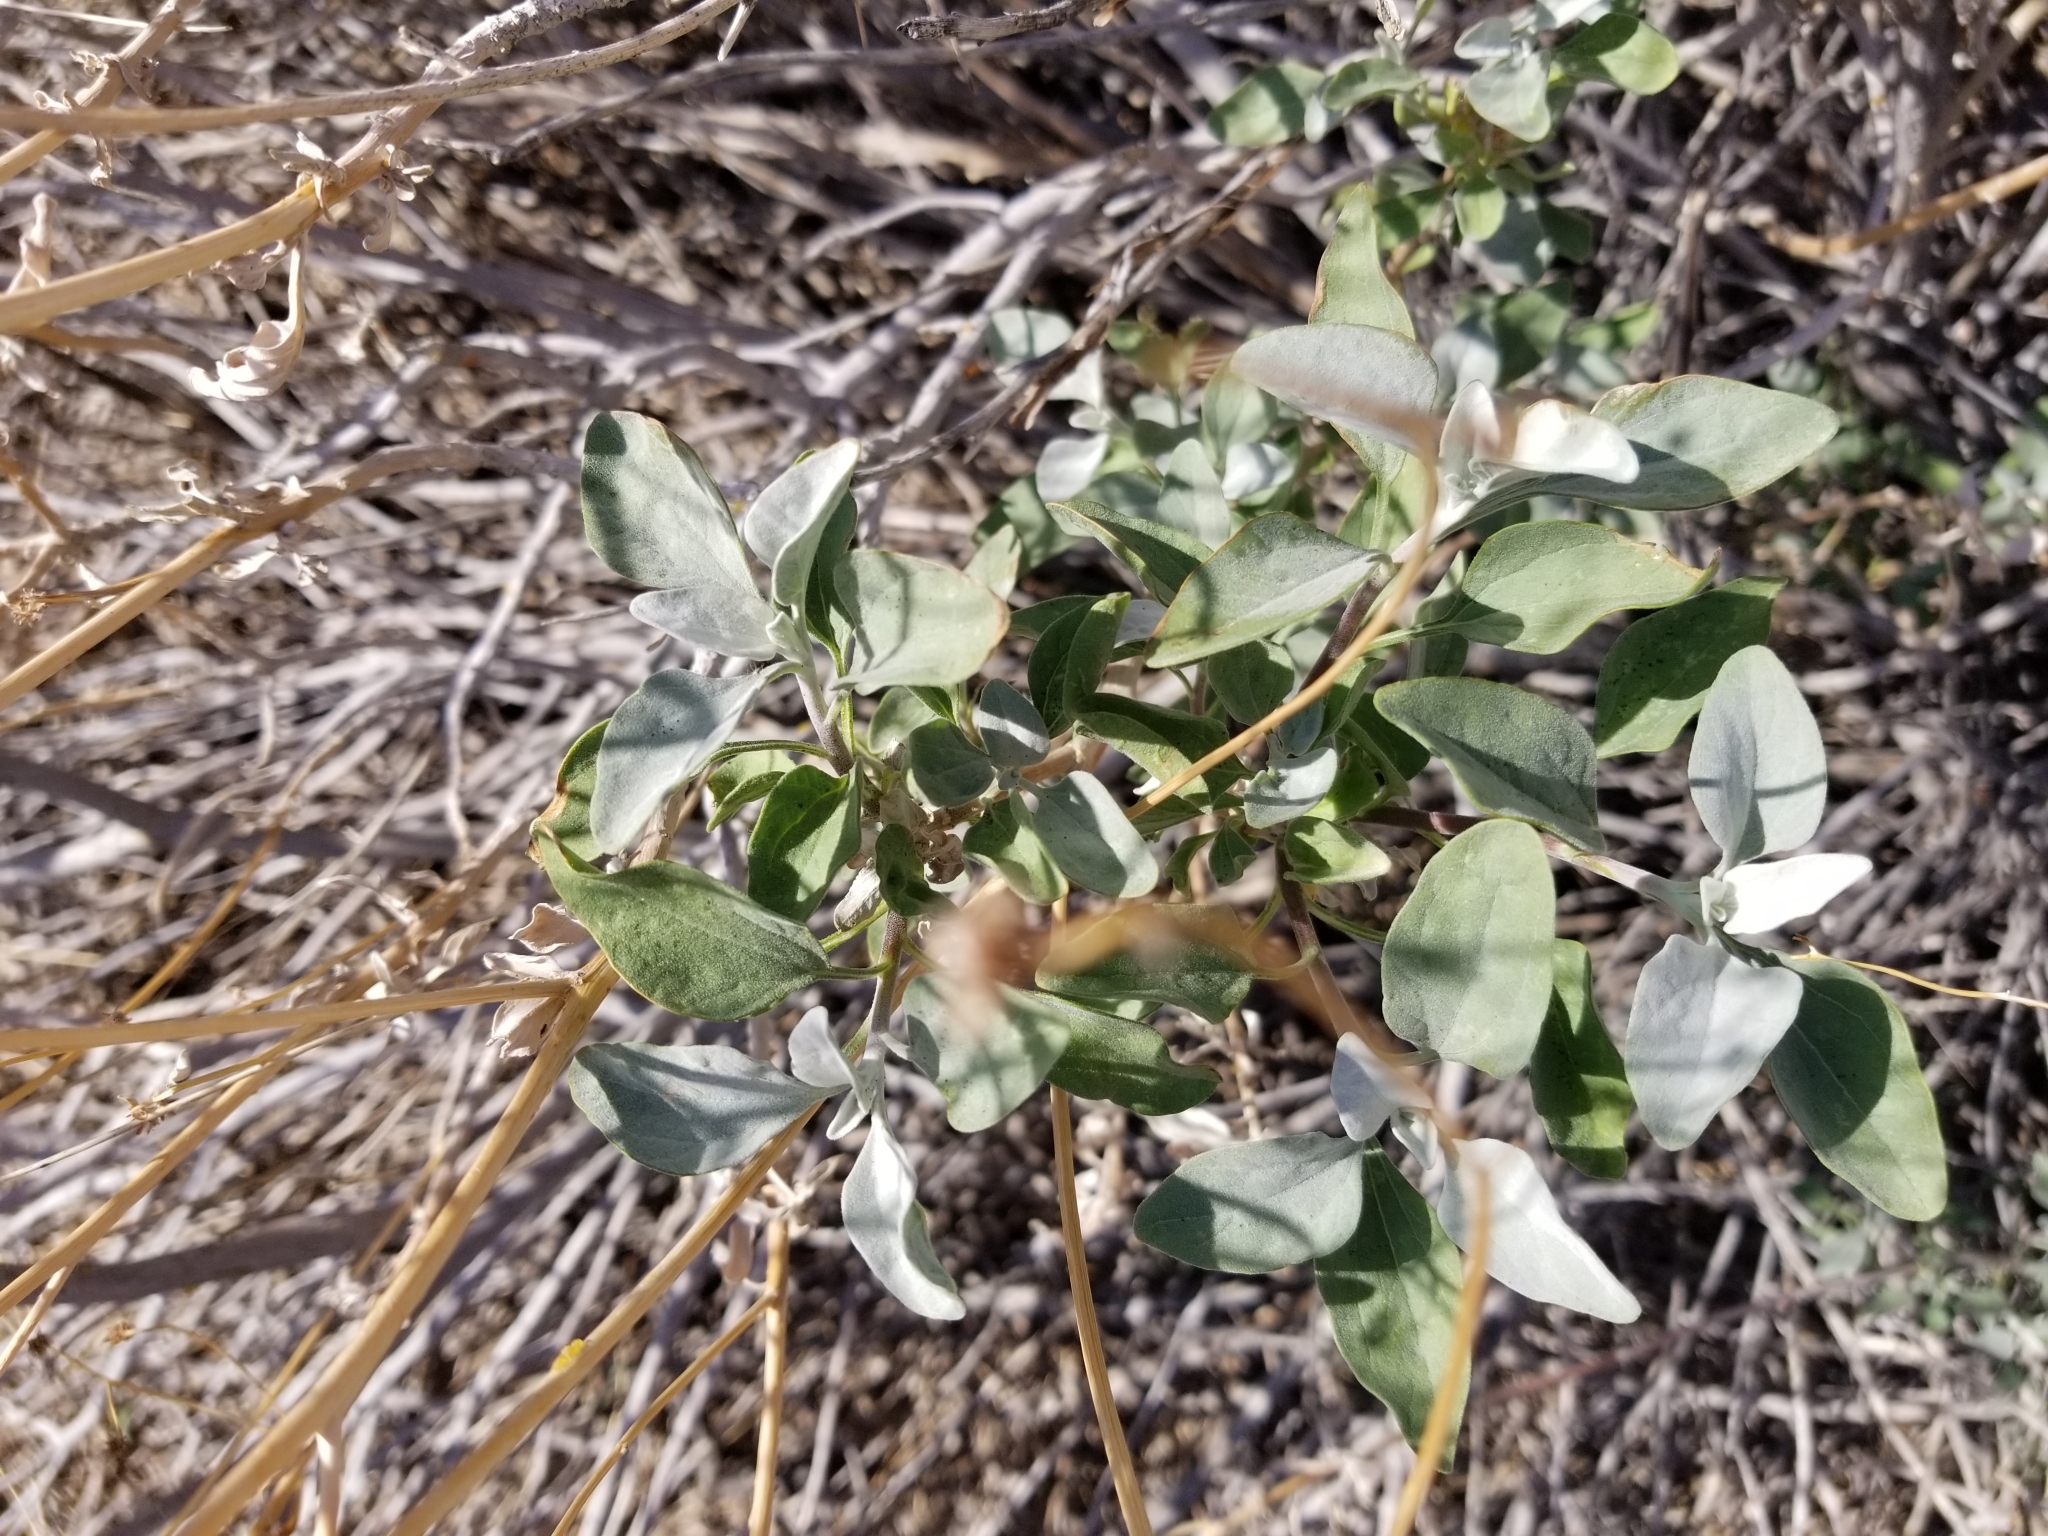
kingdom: Plantae
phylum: Tracheophyta
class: Magnoliopsida
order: Asterales
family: Asteraceae
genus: Encelia
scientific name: Encelia farinosa
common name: Brittlebush
